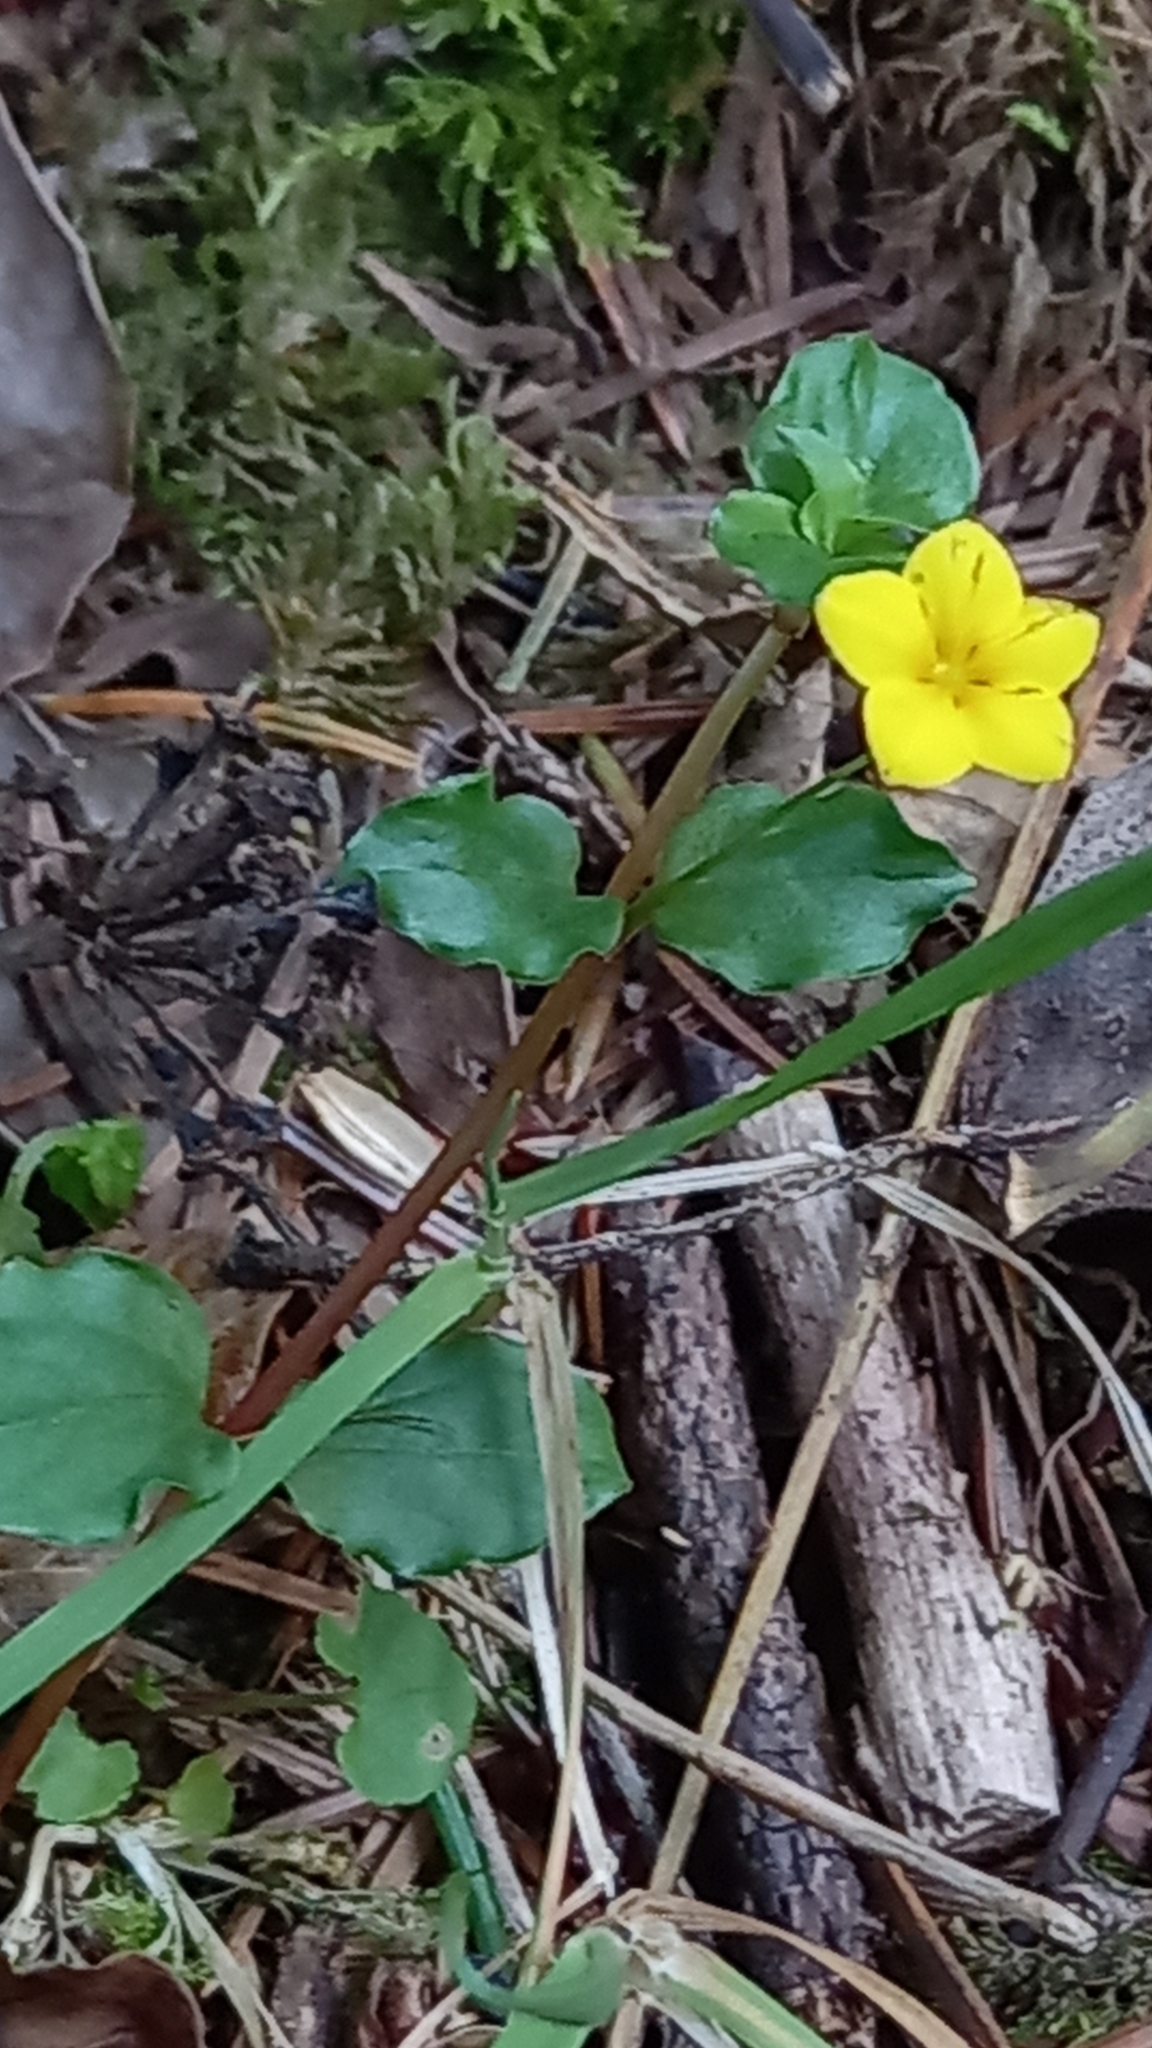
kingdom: Plantae
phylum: Tracheophyta
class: Magnoliopsida
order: Ericales
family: Primulaceae
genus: Lysimachia
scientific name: Lysimachia nemorum
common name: Yellow pimpernel
